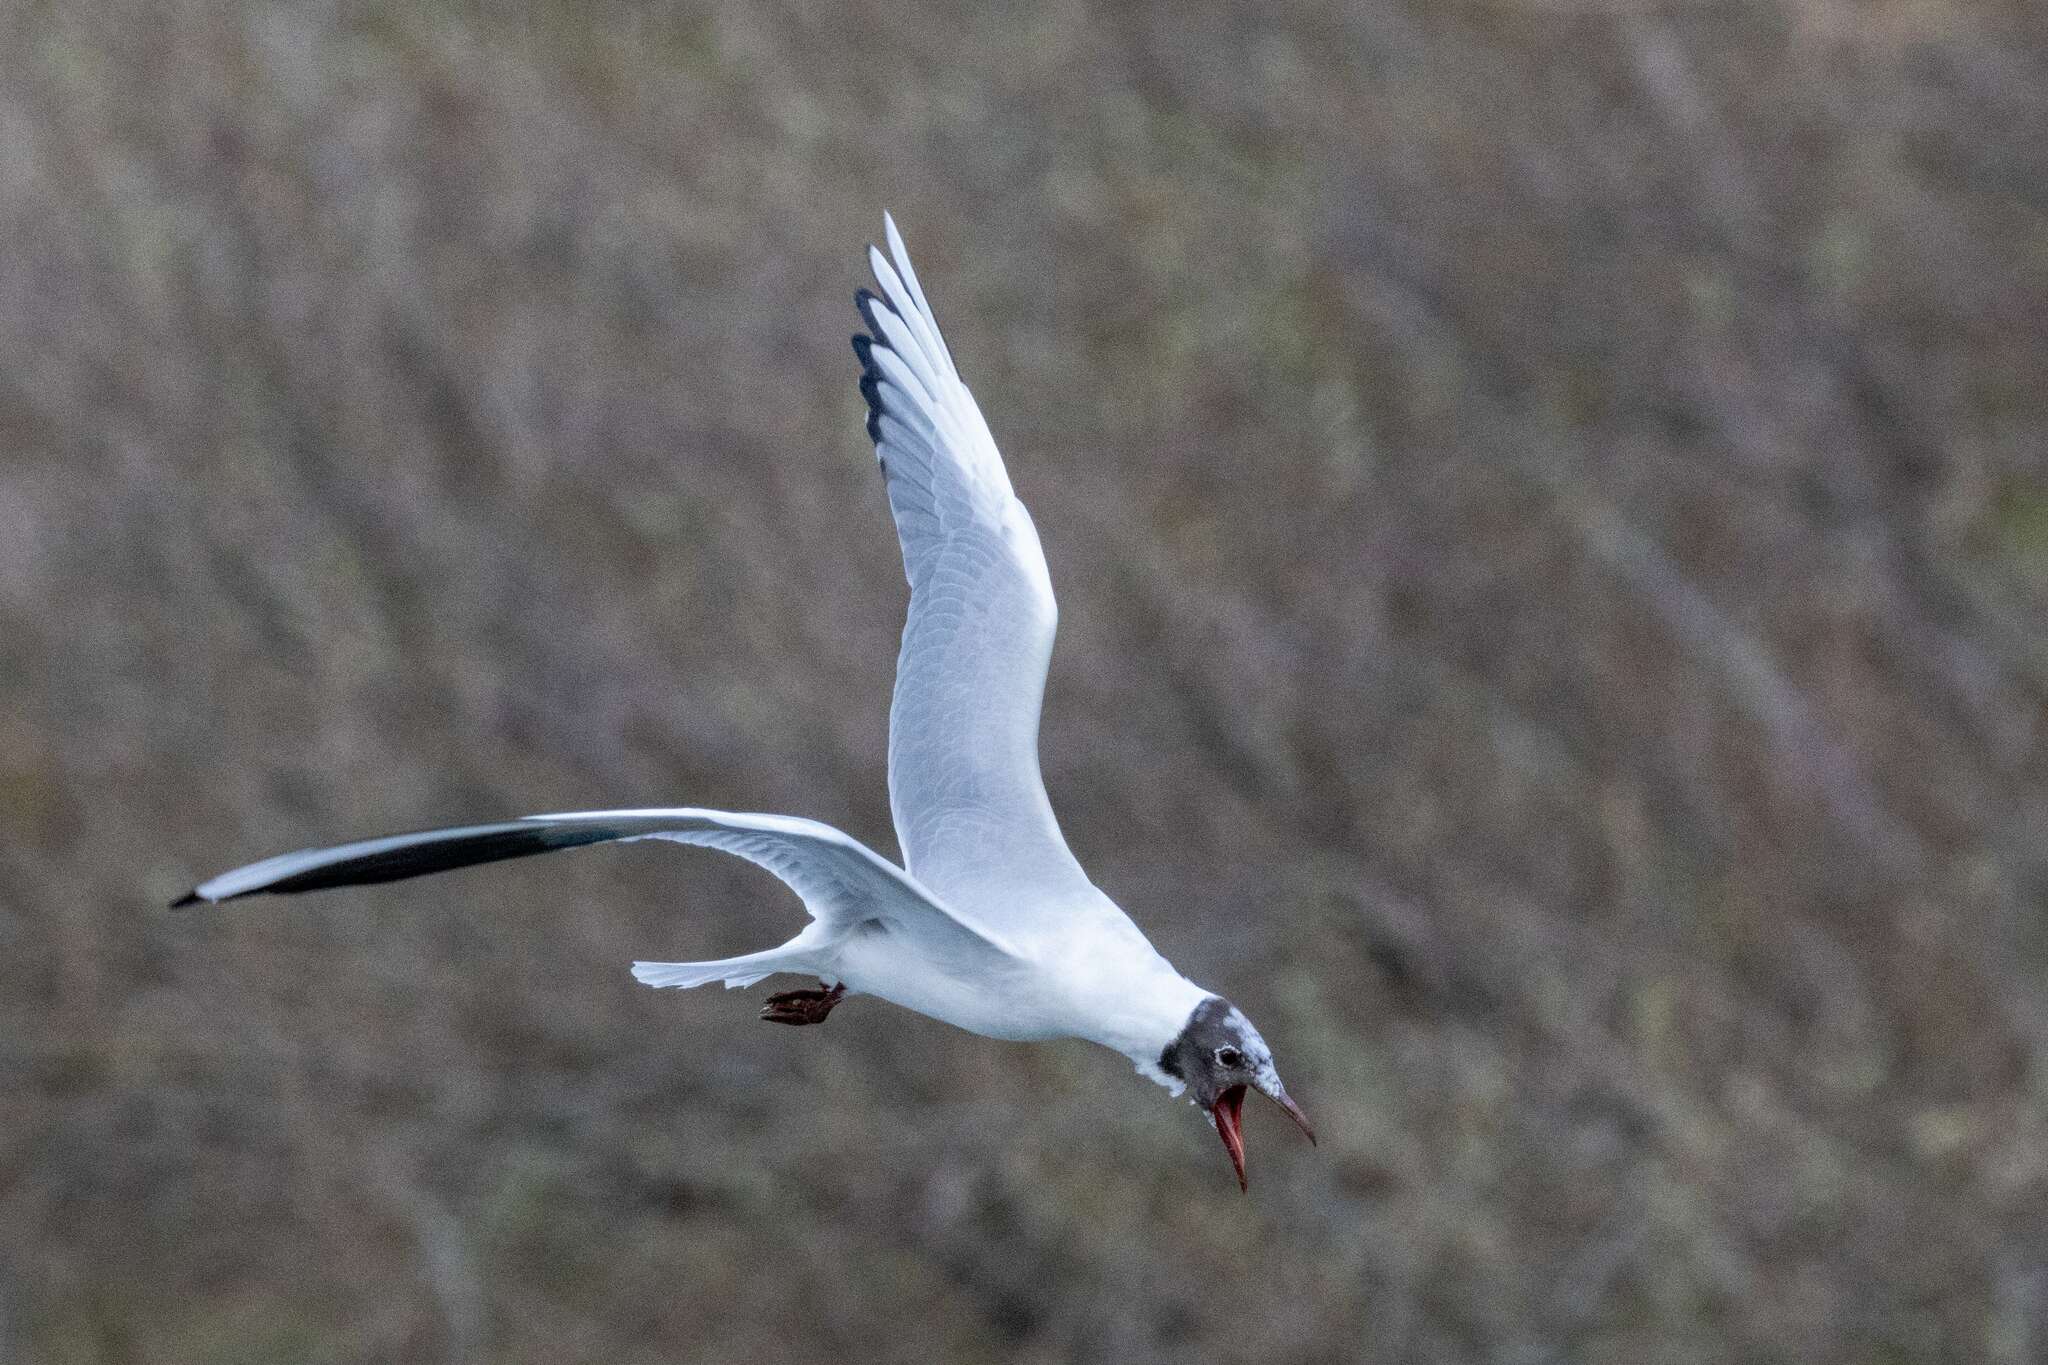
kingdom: Animalia
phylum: Chordata
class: Aves
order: Charadriiformes
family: Laridae
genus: Chroicocephalus
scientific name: Chroicocephalus ridibundus
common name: Black-headed gull
